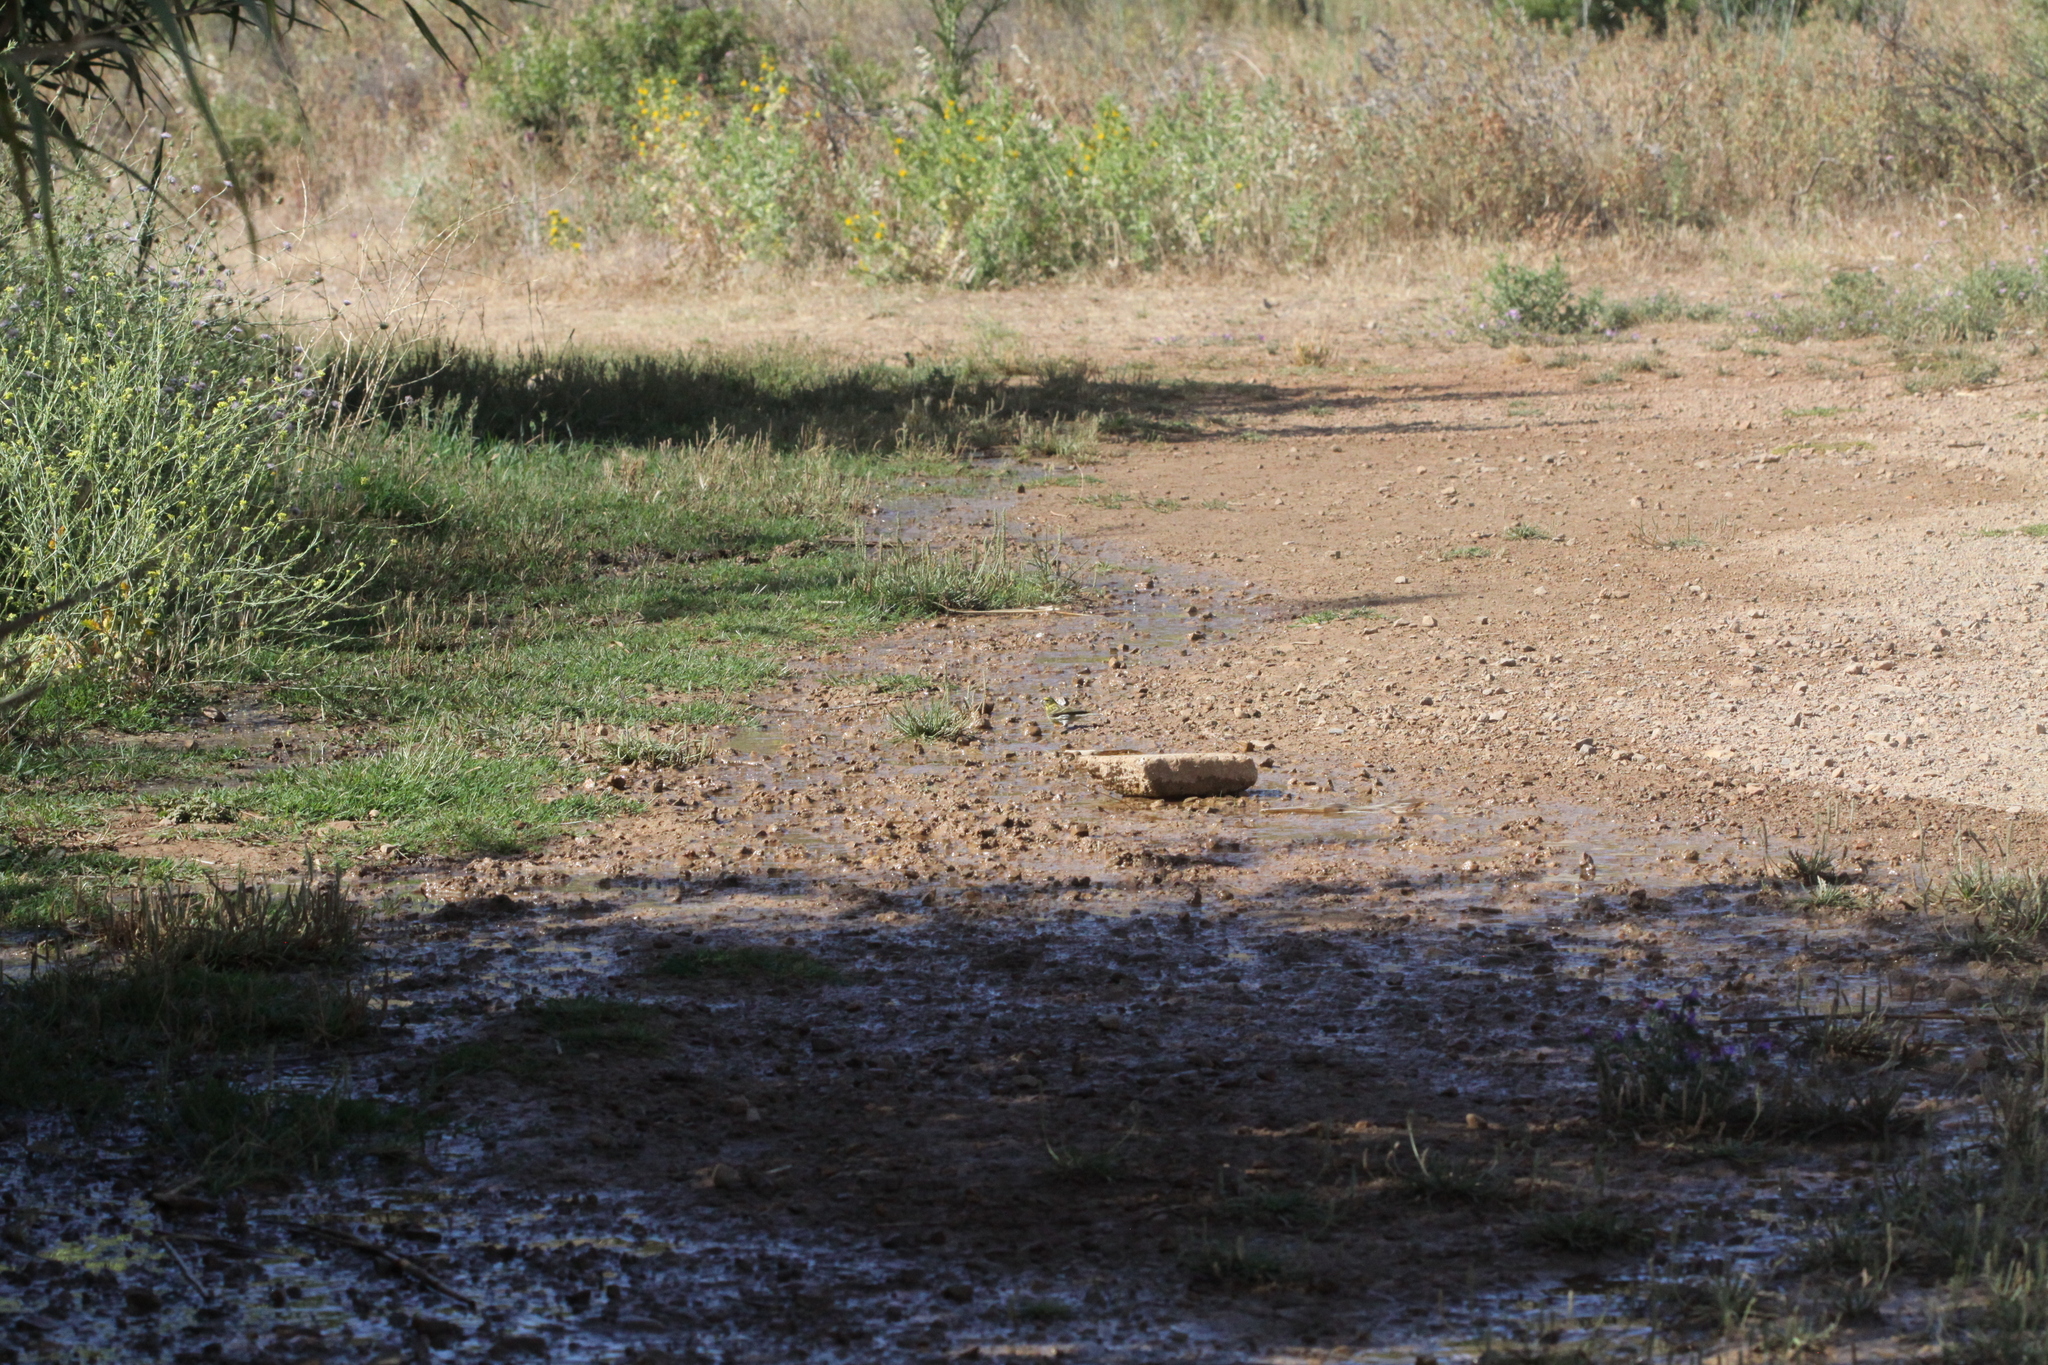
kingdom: Animalia
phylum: Chordata
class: Aves
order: Passeriformes
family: Fringillidae
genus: Serinus
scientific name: Serinus serinus
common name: European serin
